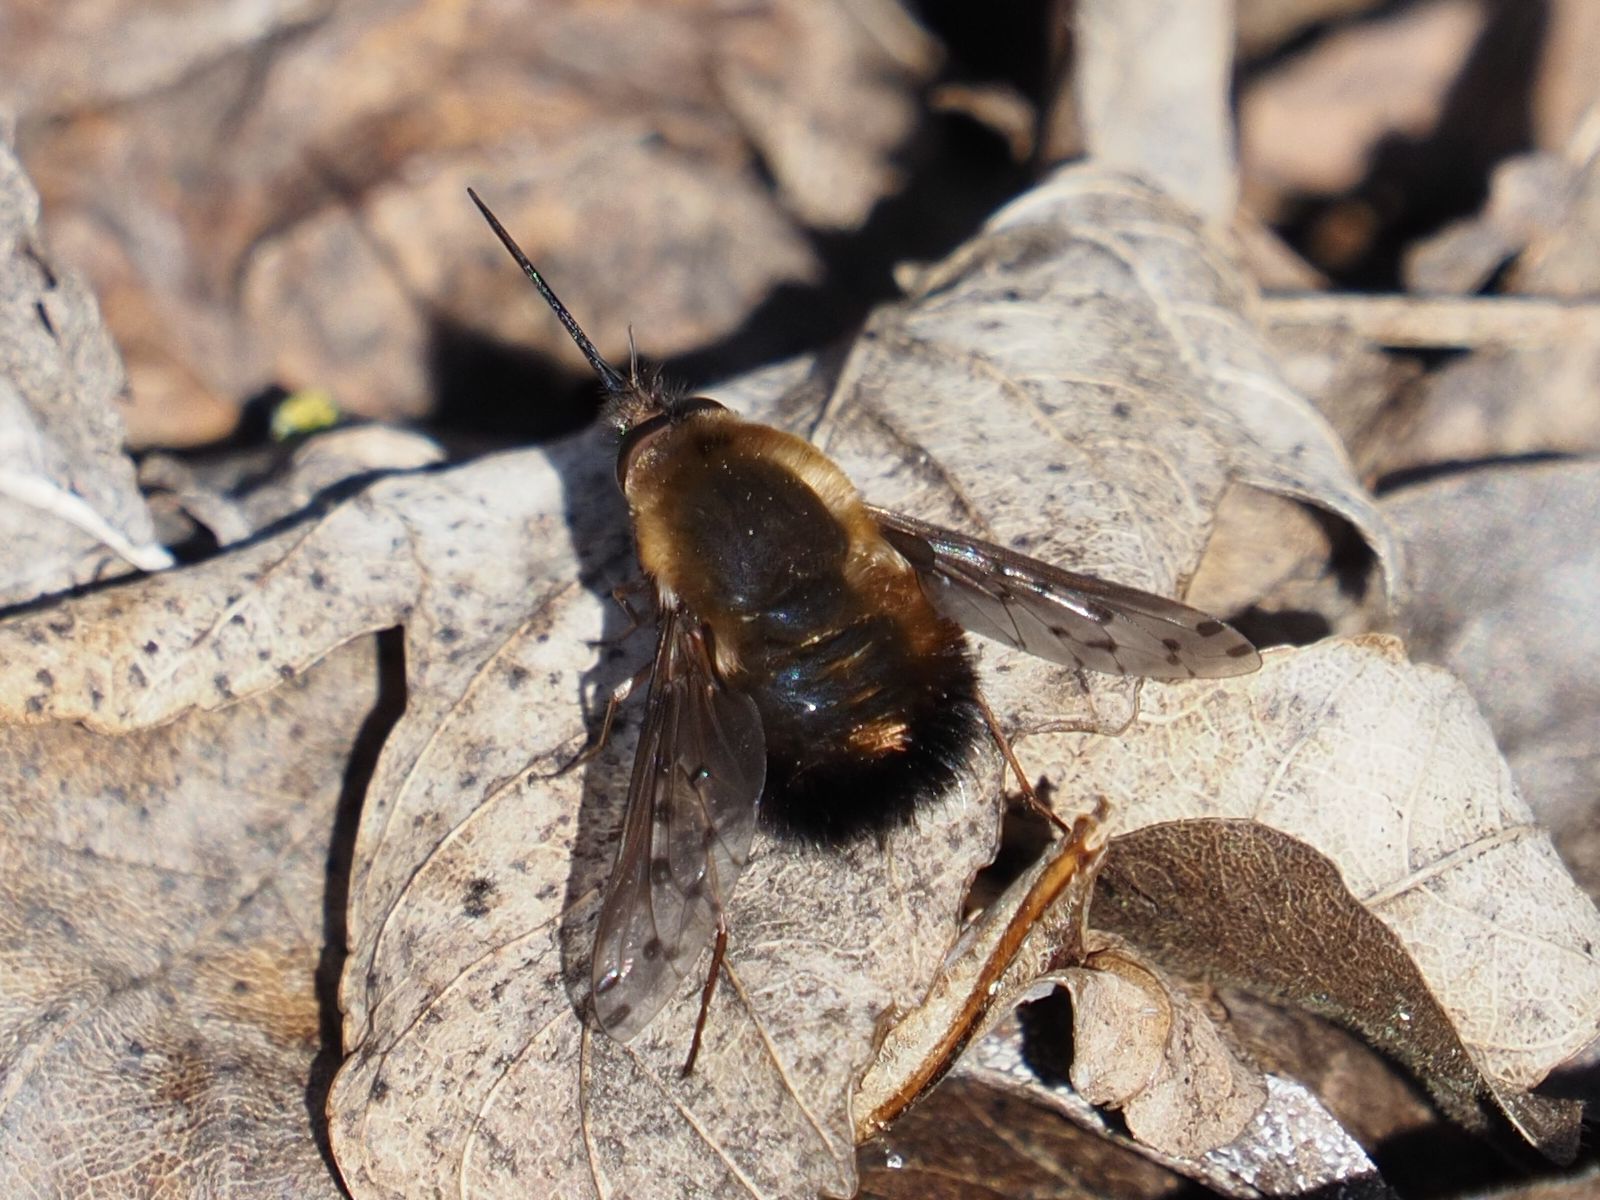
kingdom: Animalia
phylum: Arthropoda
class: Insecta
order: Diptera
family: Bombyliidae
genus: Bombylius
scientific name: Bombylius discolor
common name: Dotted bee-fly
